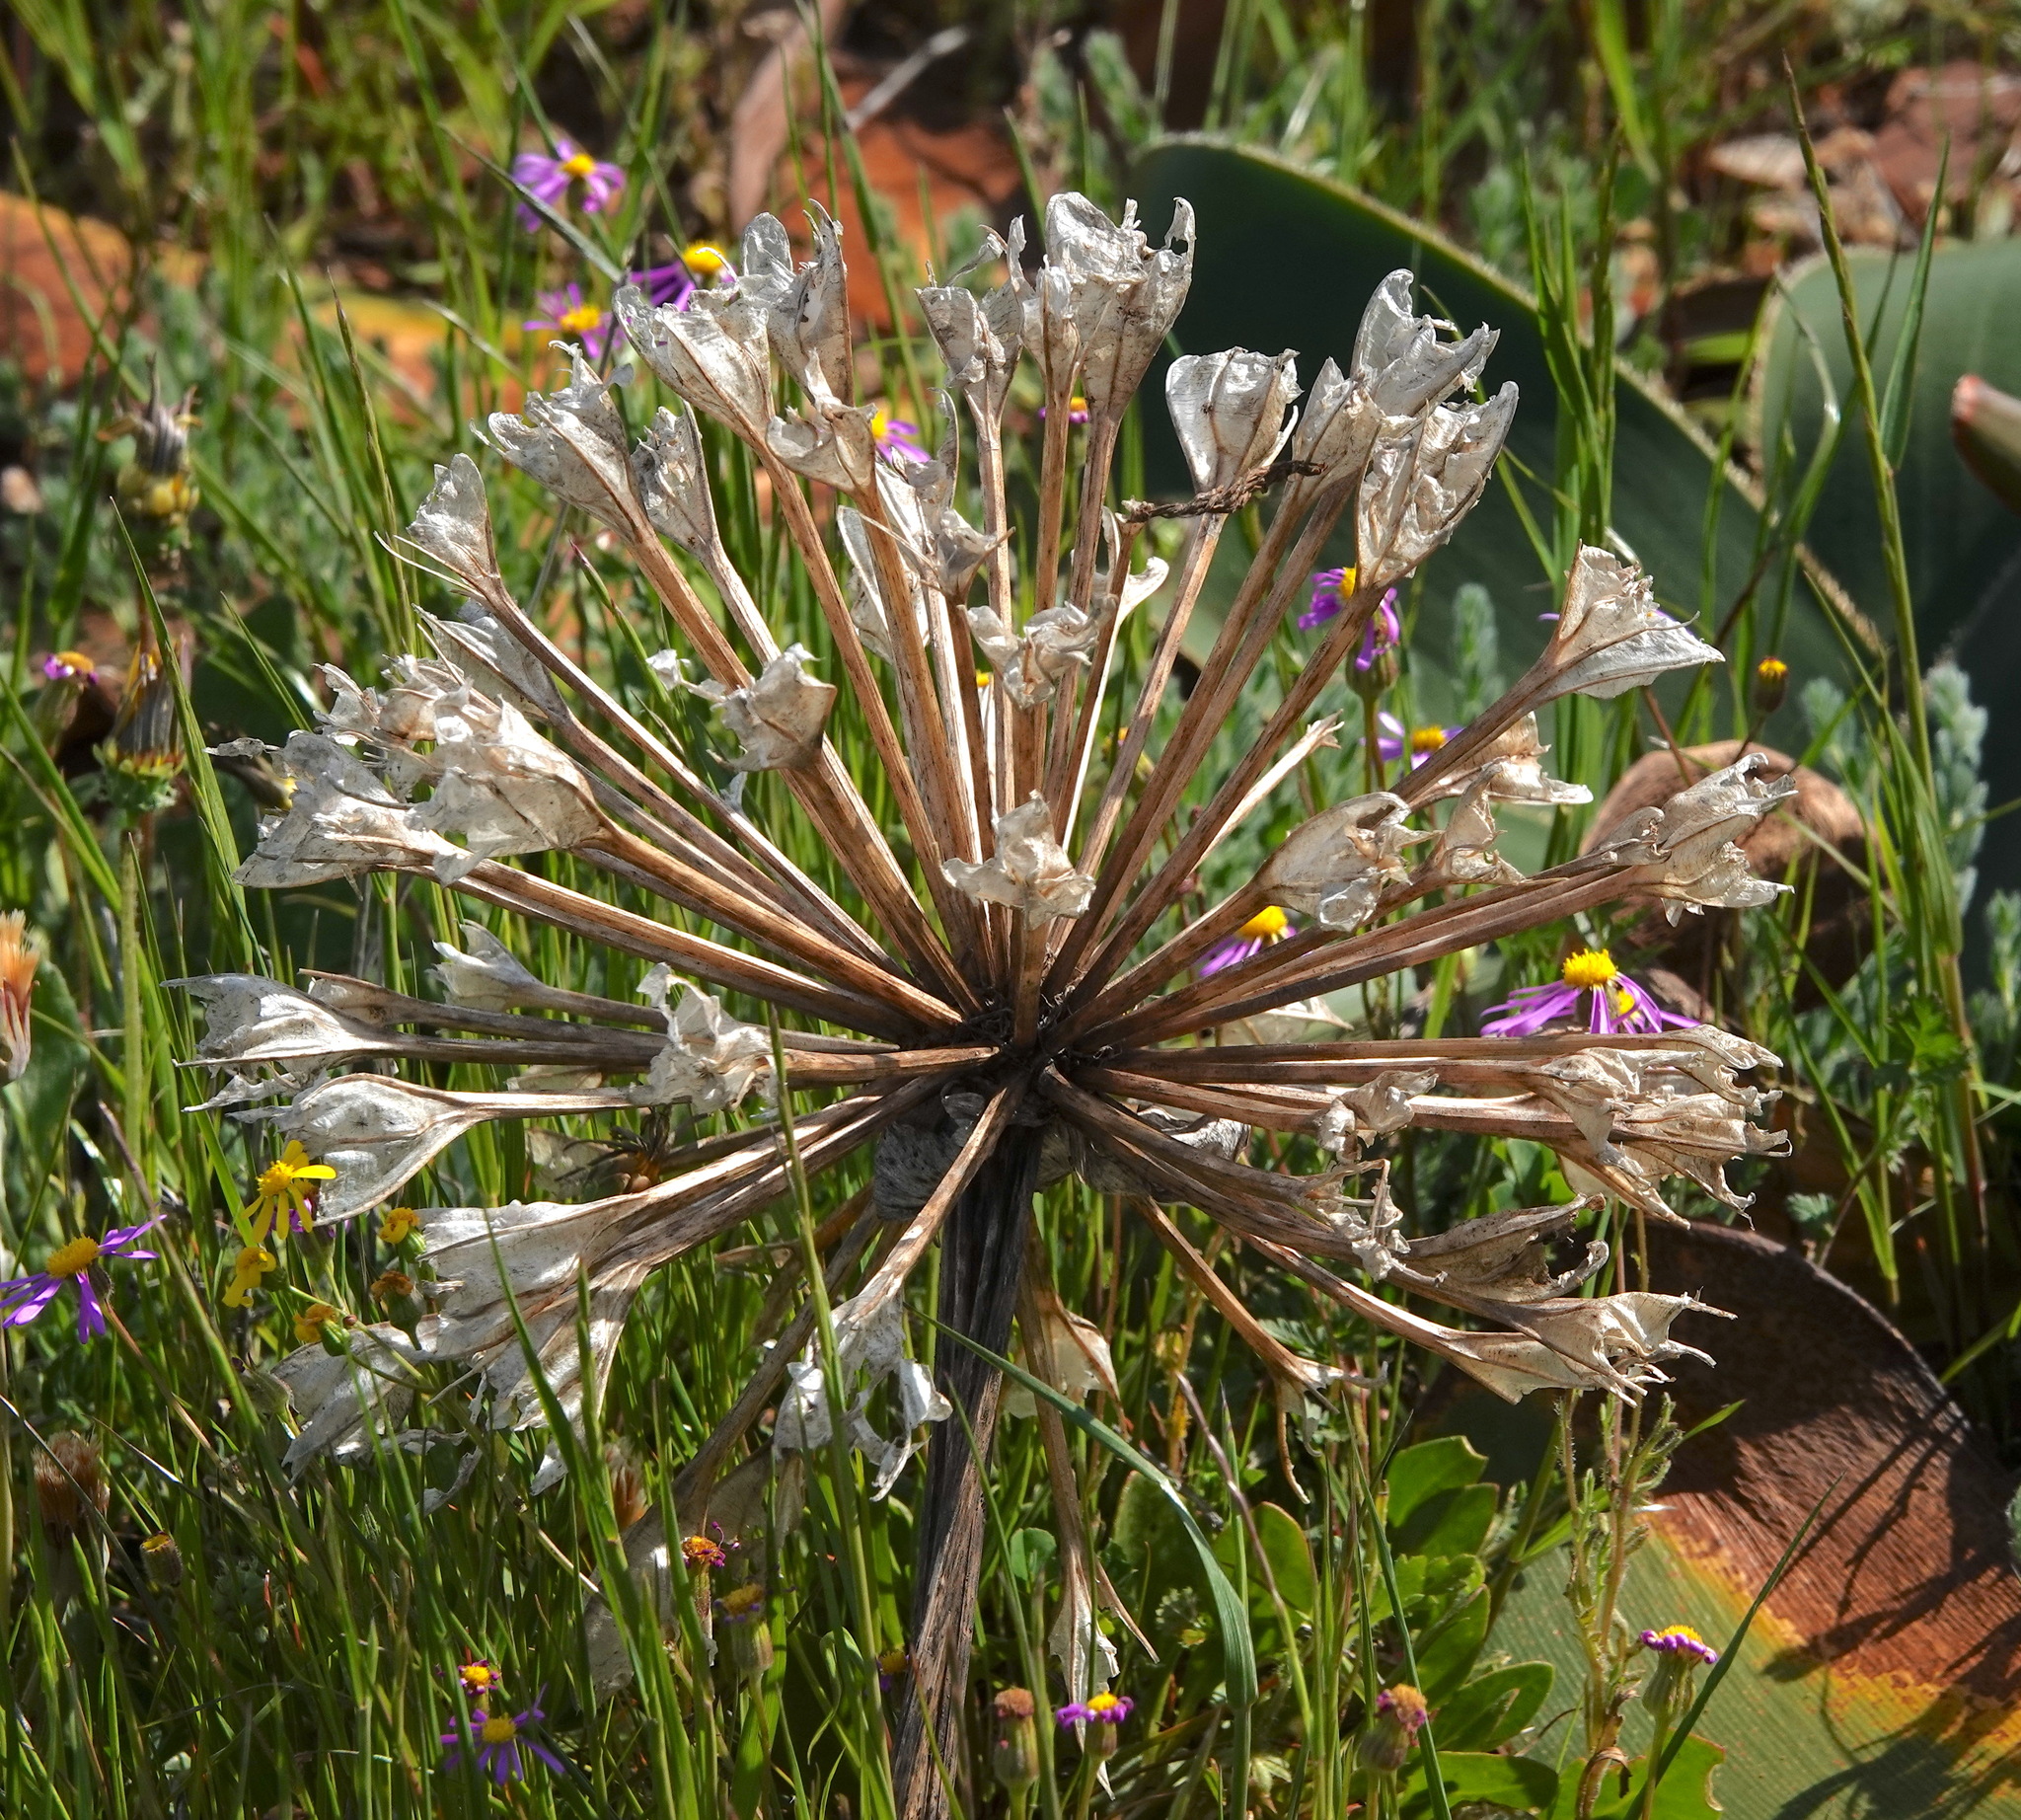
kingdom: Plantae
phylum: Tracheophyta
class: Liliopsida
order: Asparagales
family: Amaryllidaceae
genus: Brunsvigia
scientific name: Brunsvigia bosmaniae
